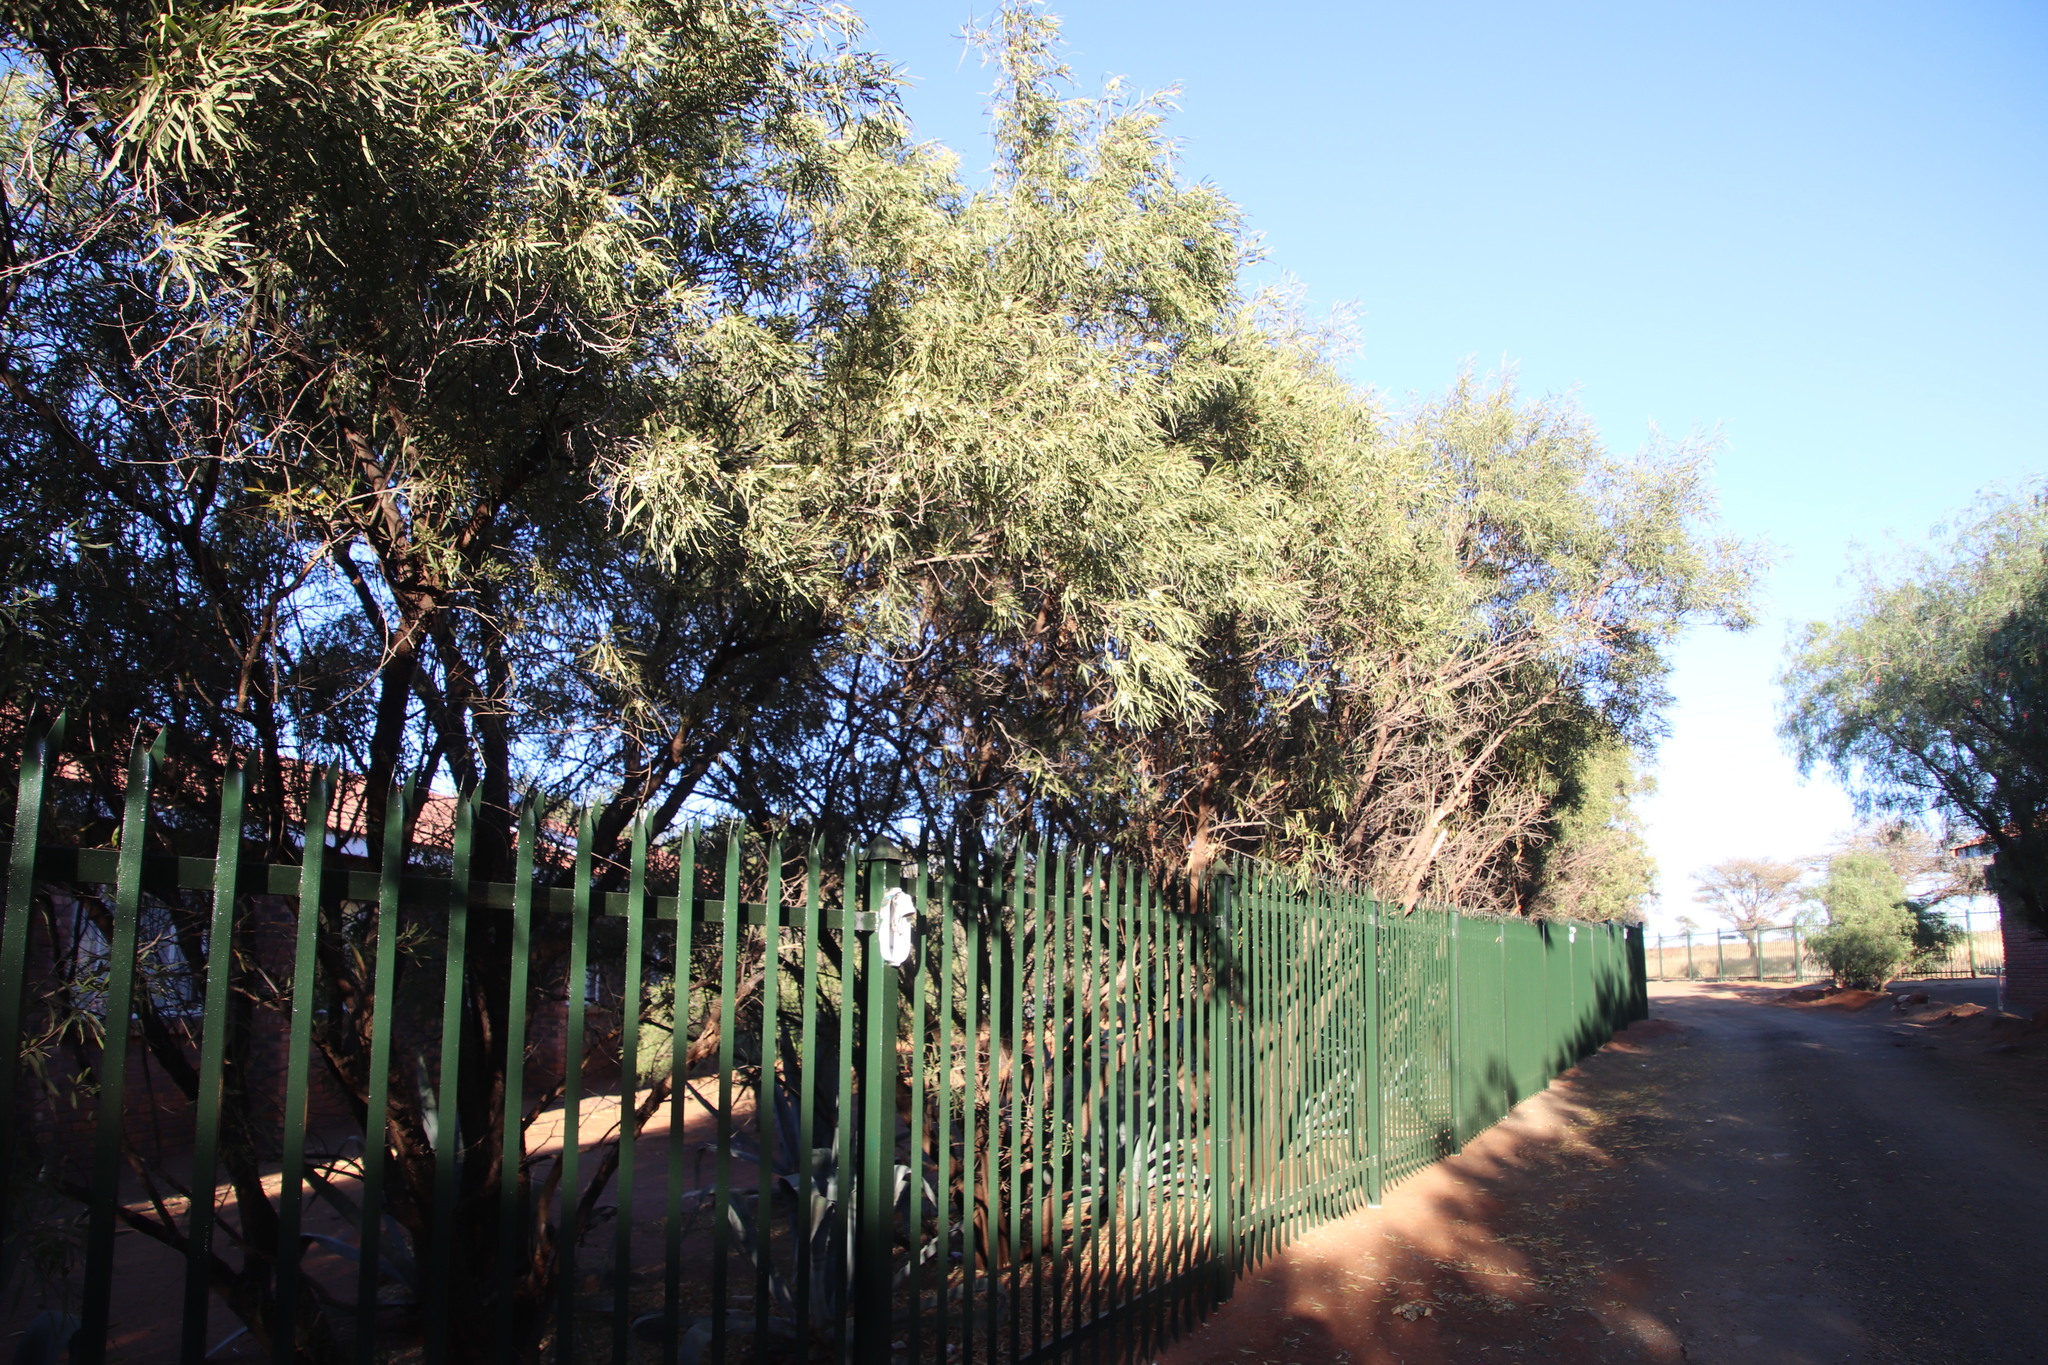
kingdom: Plantae
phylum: Tracheophyta
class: Magnoliopsida
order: Sapindales
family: Anacardiaceae
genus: Searsia
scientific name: Searsia lancea
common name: Cashew
